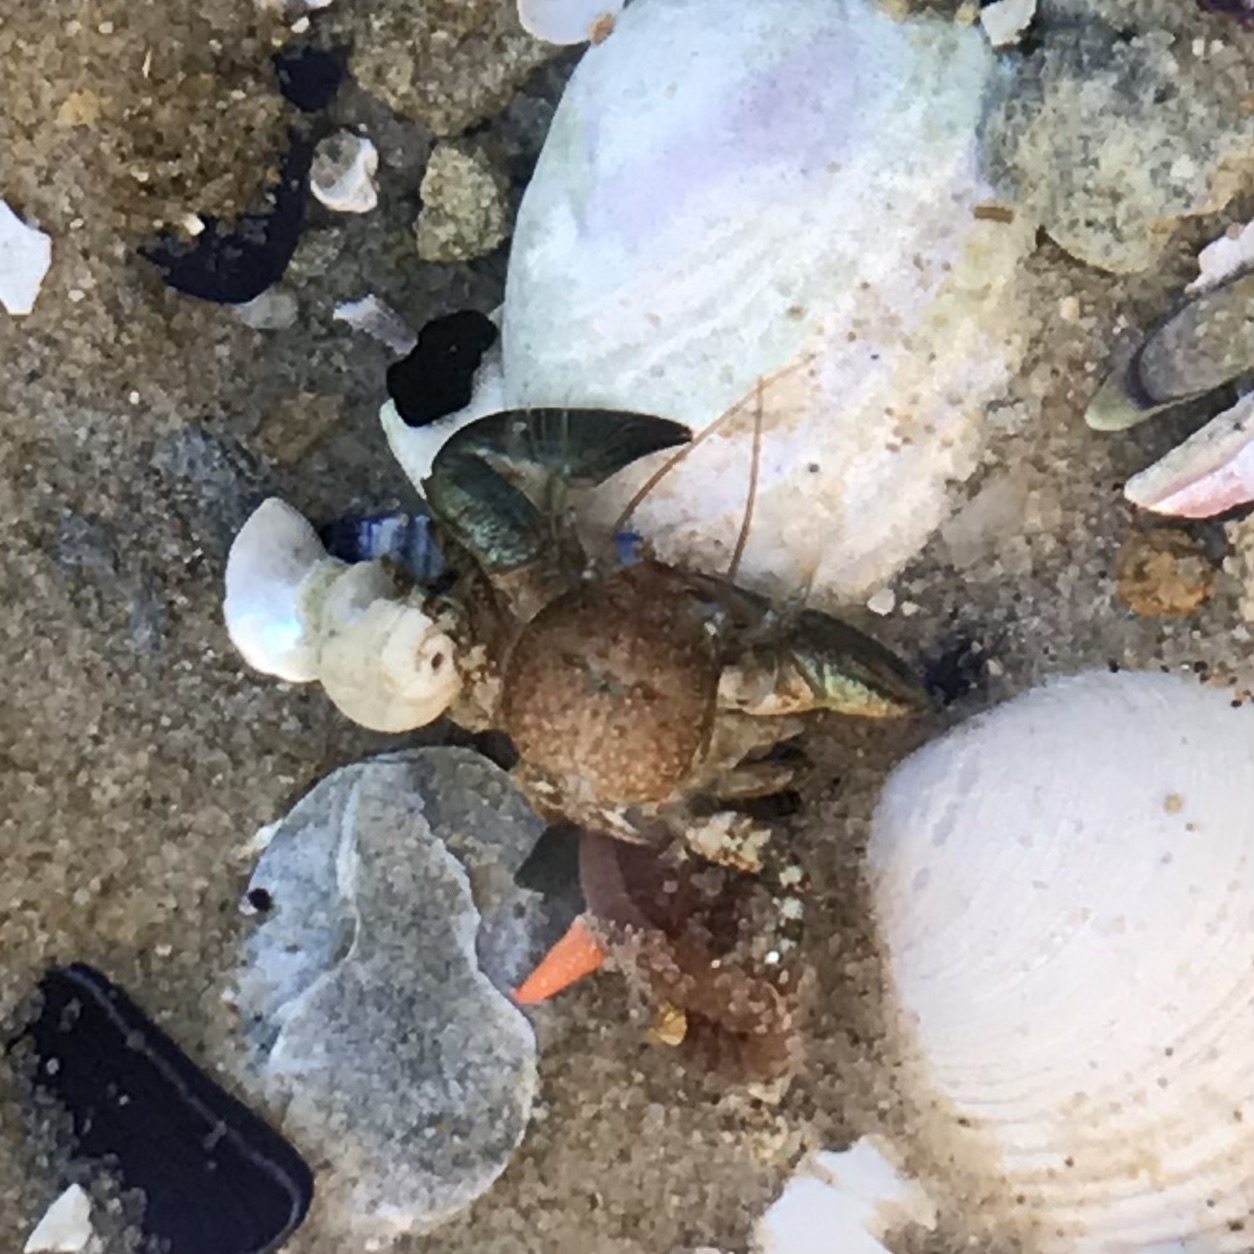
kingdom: Animalia
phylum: Arthropoda
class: Malacostraca
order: Decapoda
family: Porcellanidae
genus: Petrolisthes
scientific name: Petrolisthes elongatus
